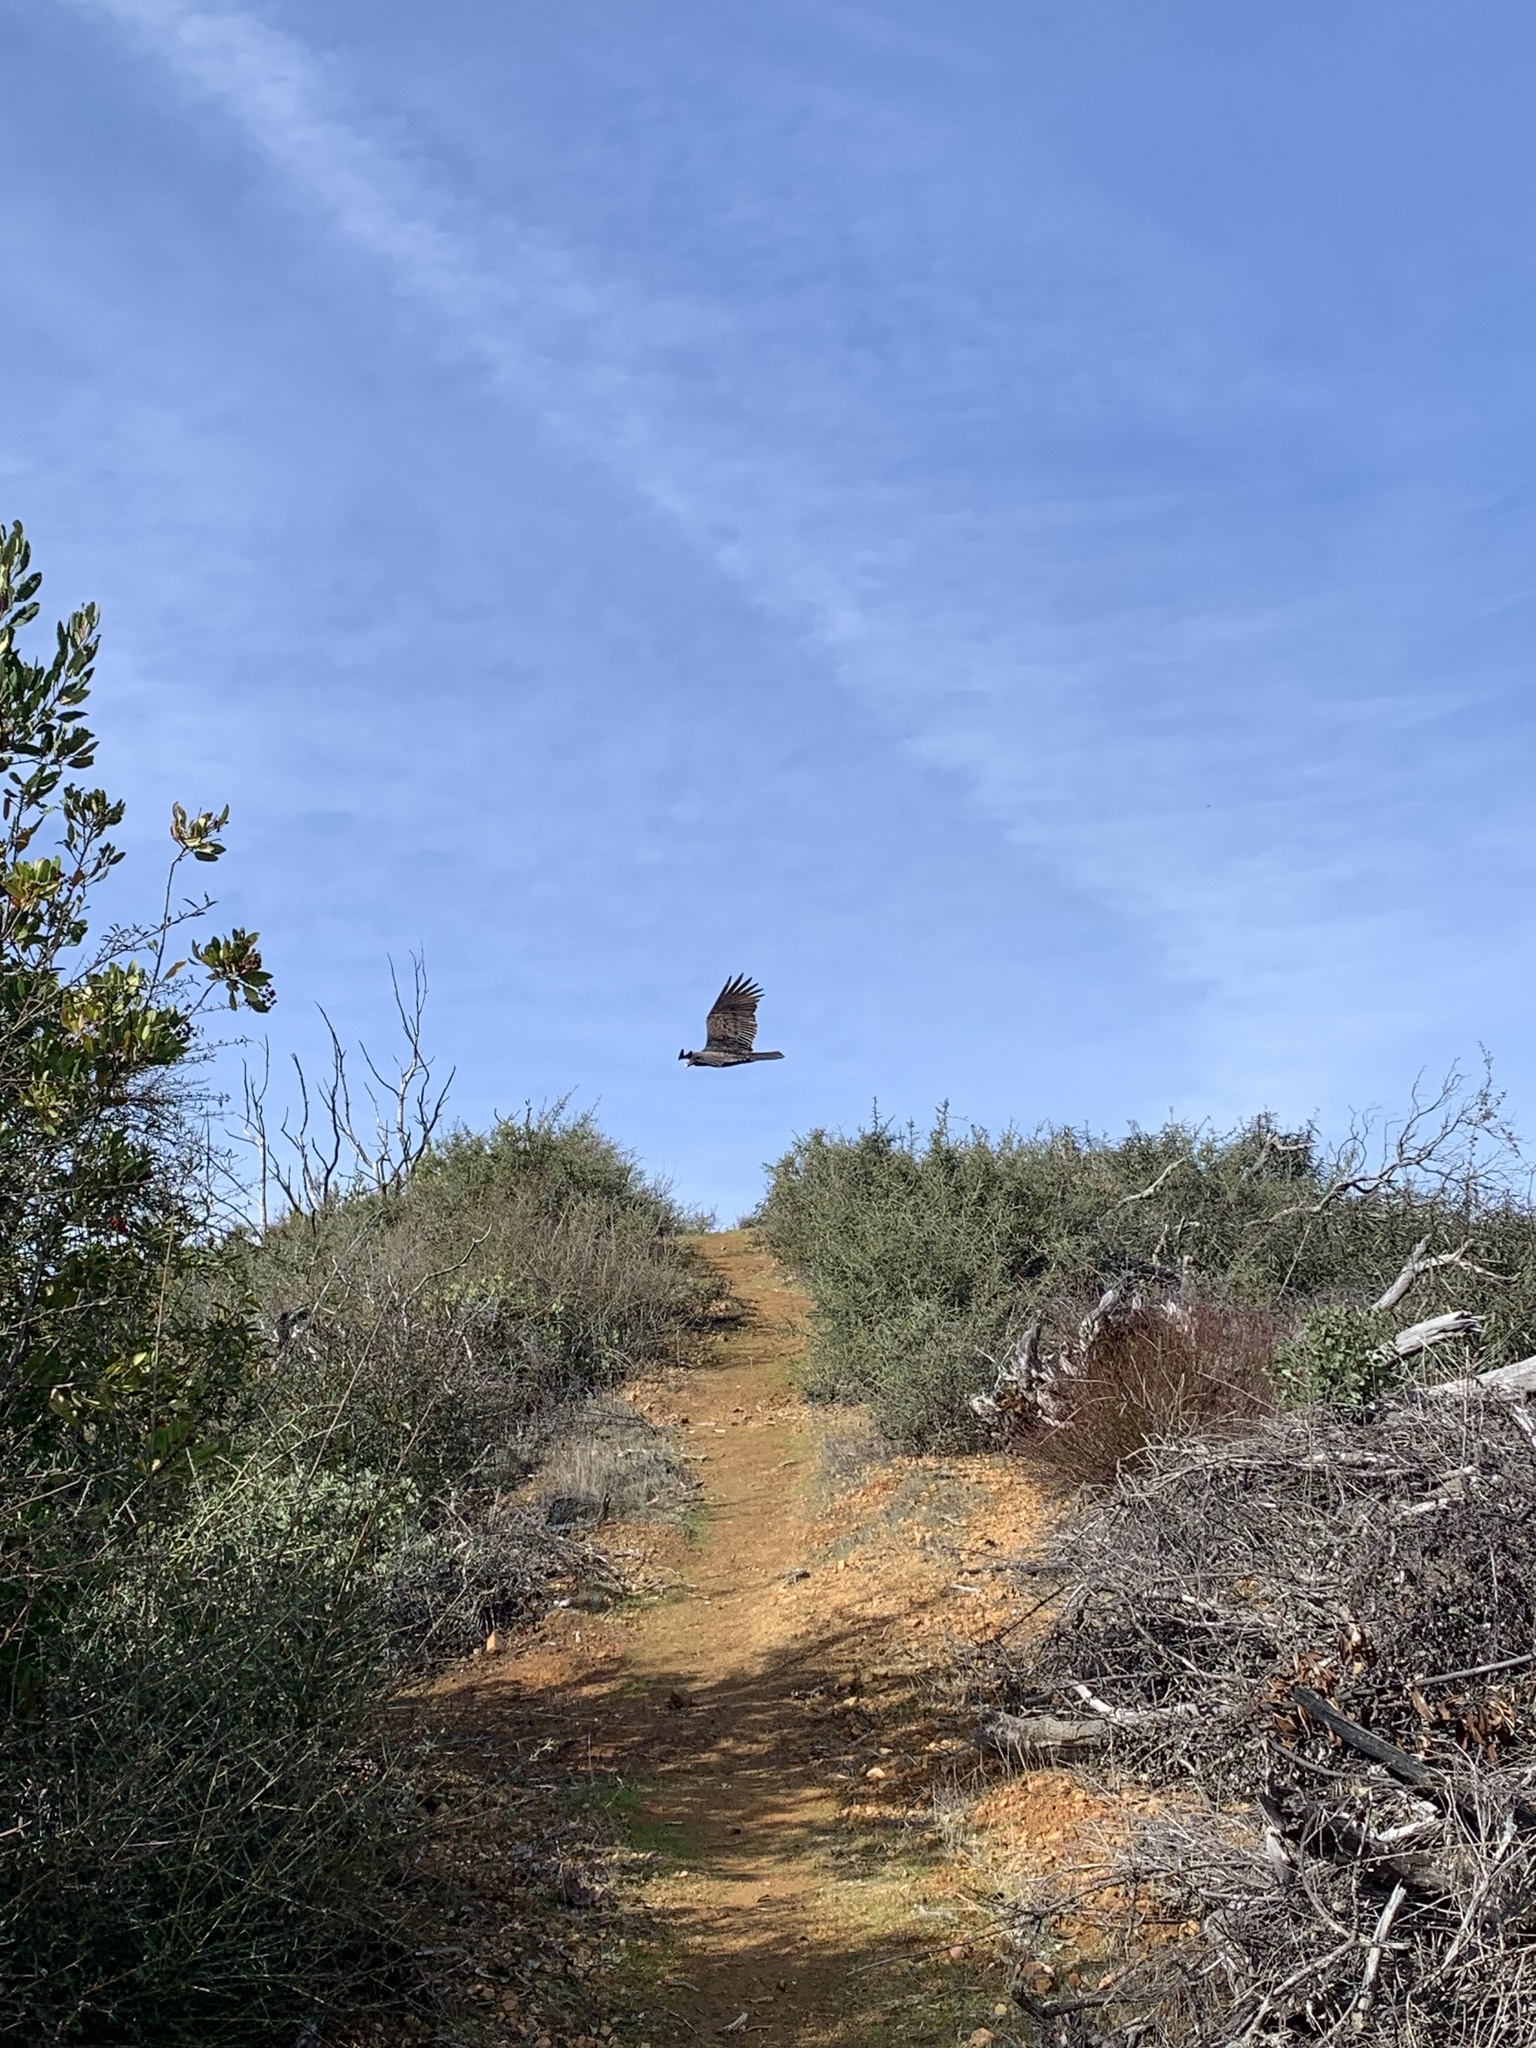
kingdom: Animalia
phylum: Chordata
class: Aves
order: Accipitriformes
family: Cathartidae
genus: Cathartes
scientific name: Cathartes aura
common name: Turkey vulture
